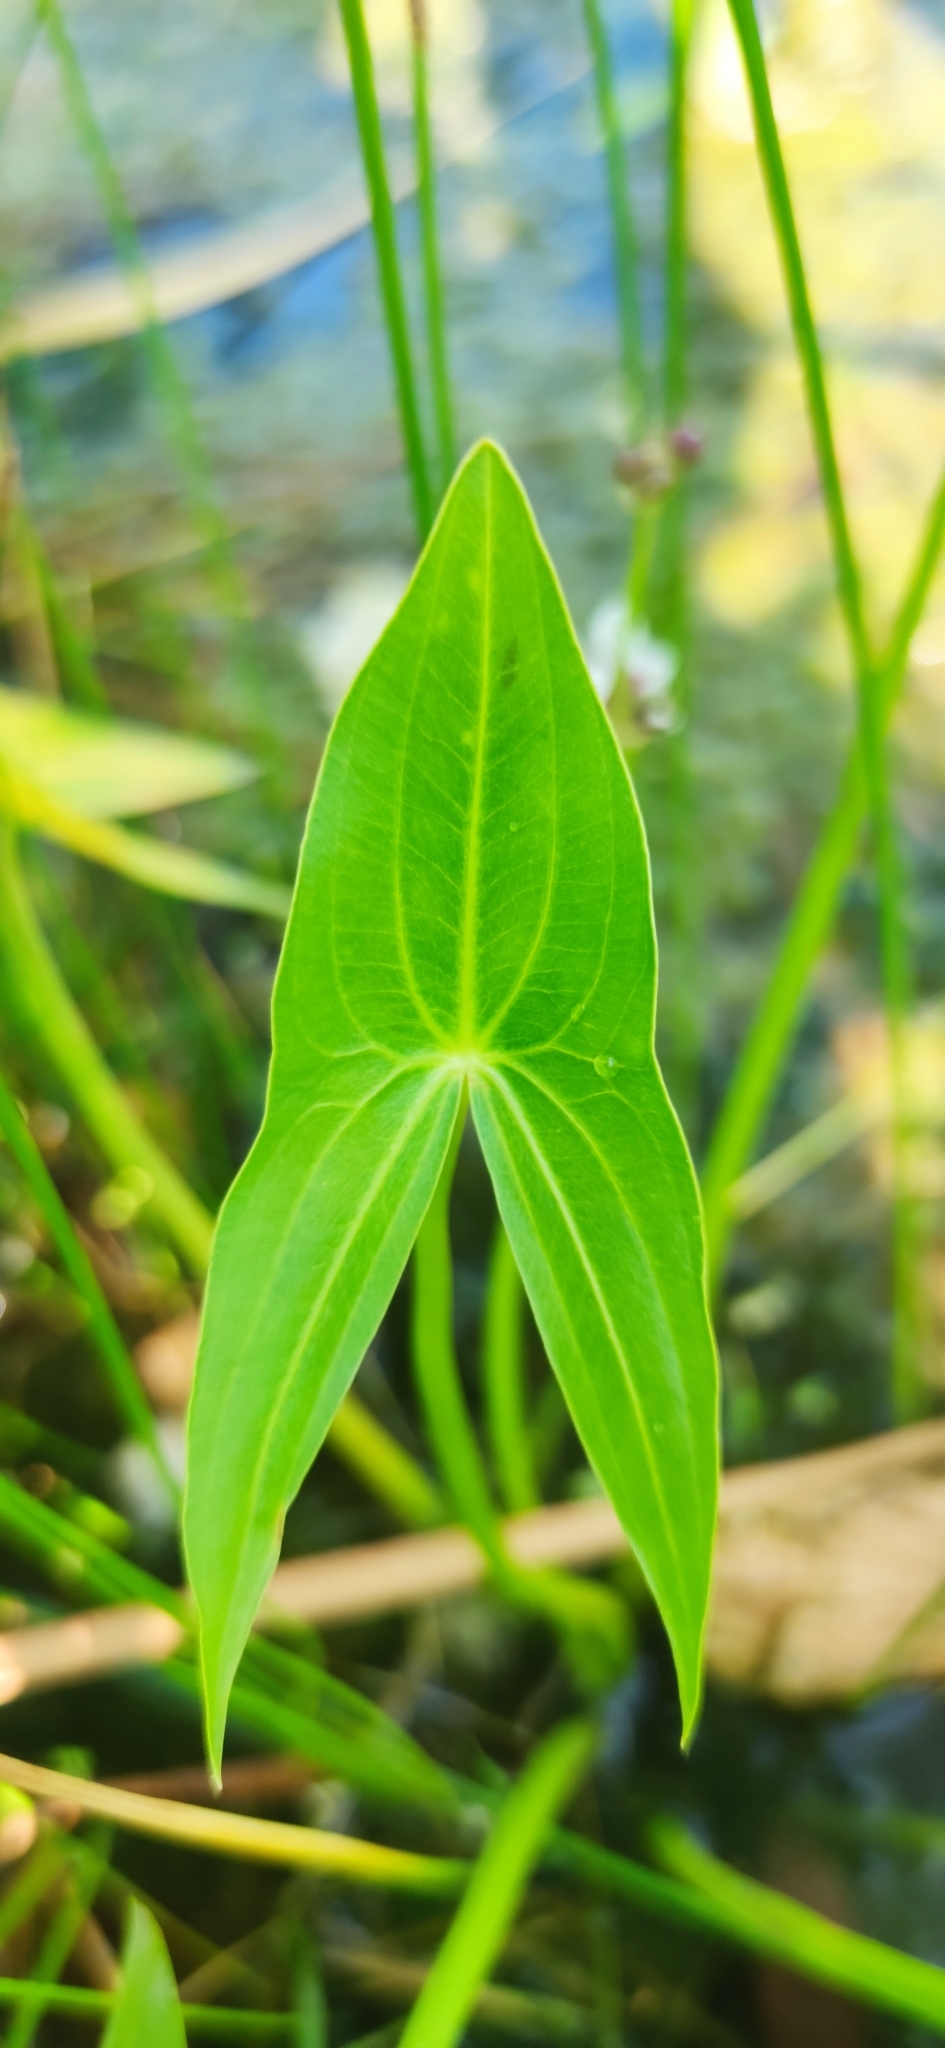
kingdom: Plantae
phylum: Tracheophyta
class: Liliopsida
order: Alismatales
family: Alismataceae
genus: Sagittaria
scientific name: Sagittaria sagittifolia
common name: Arrowhead
